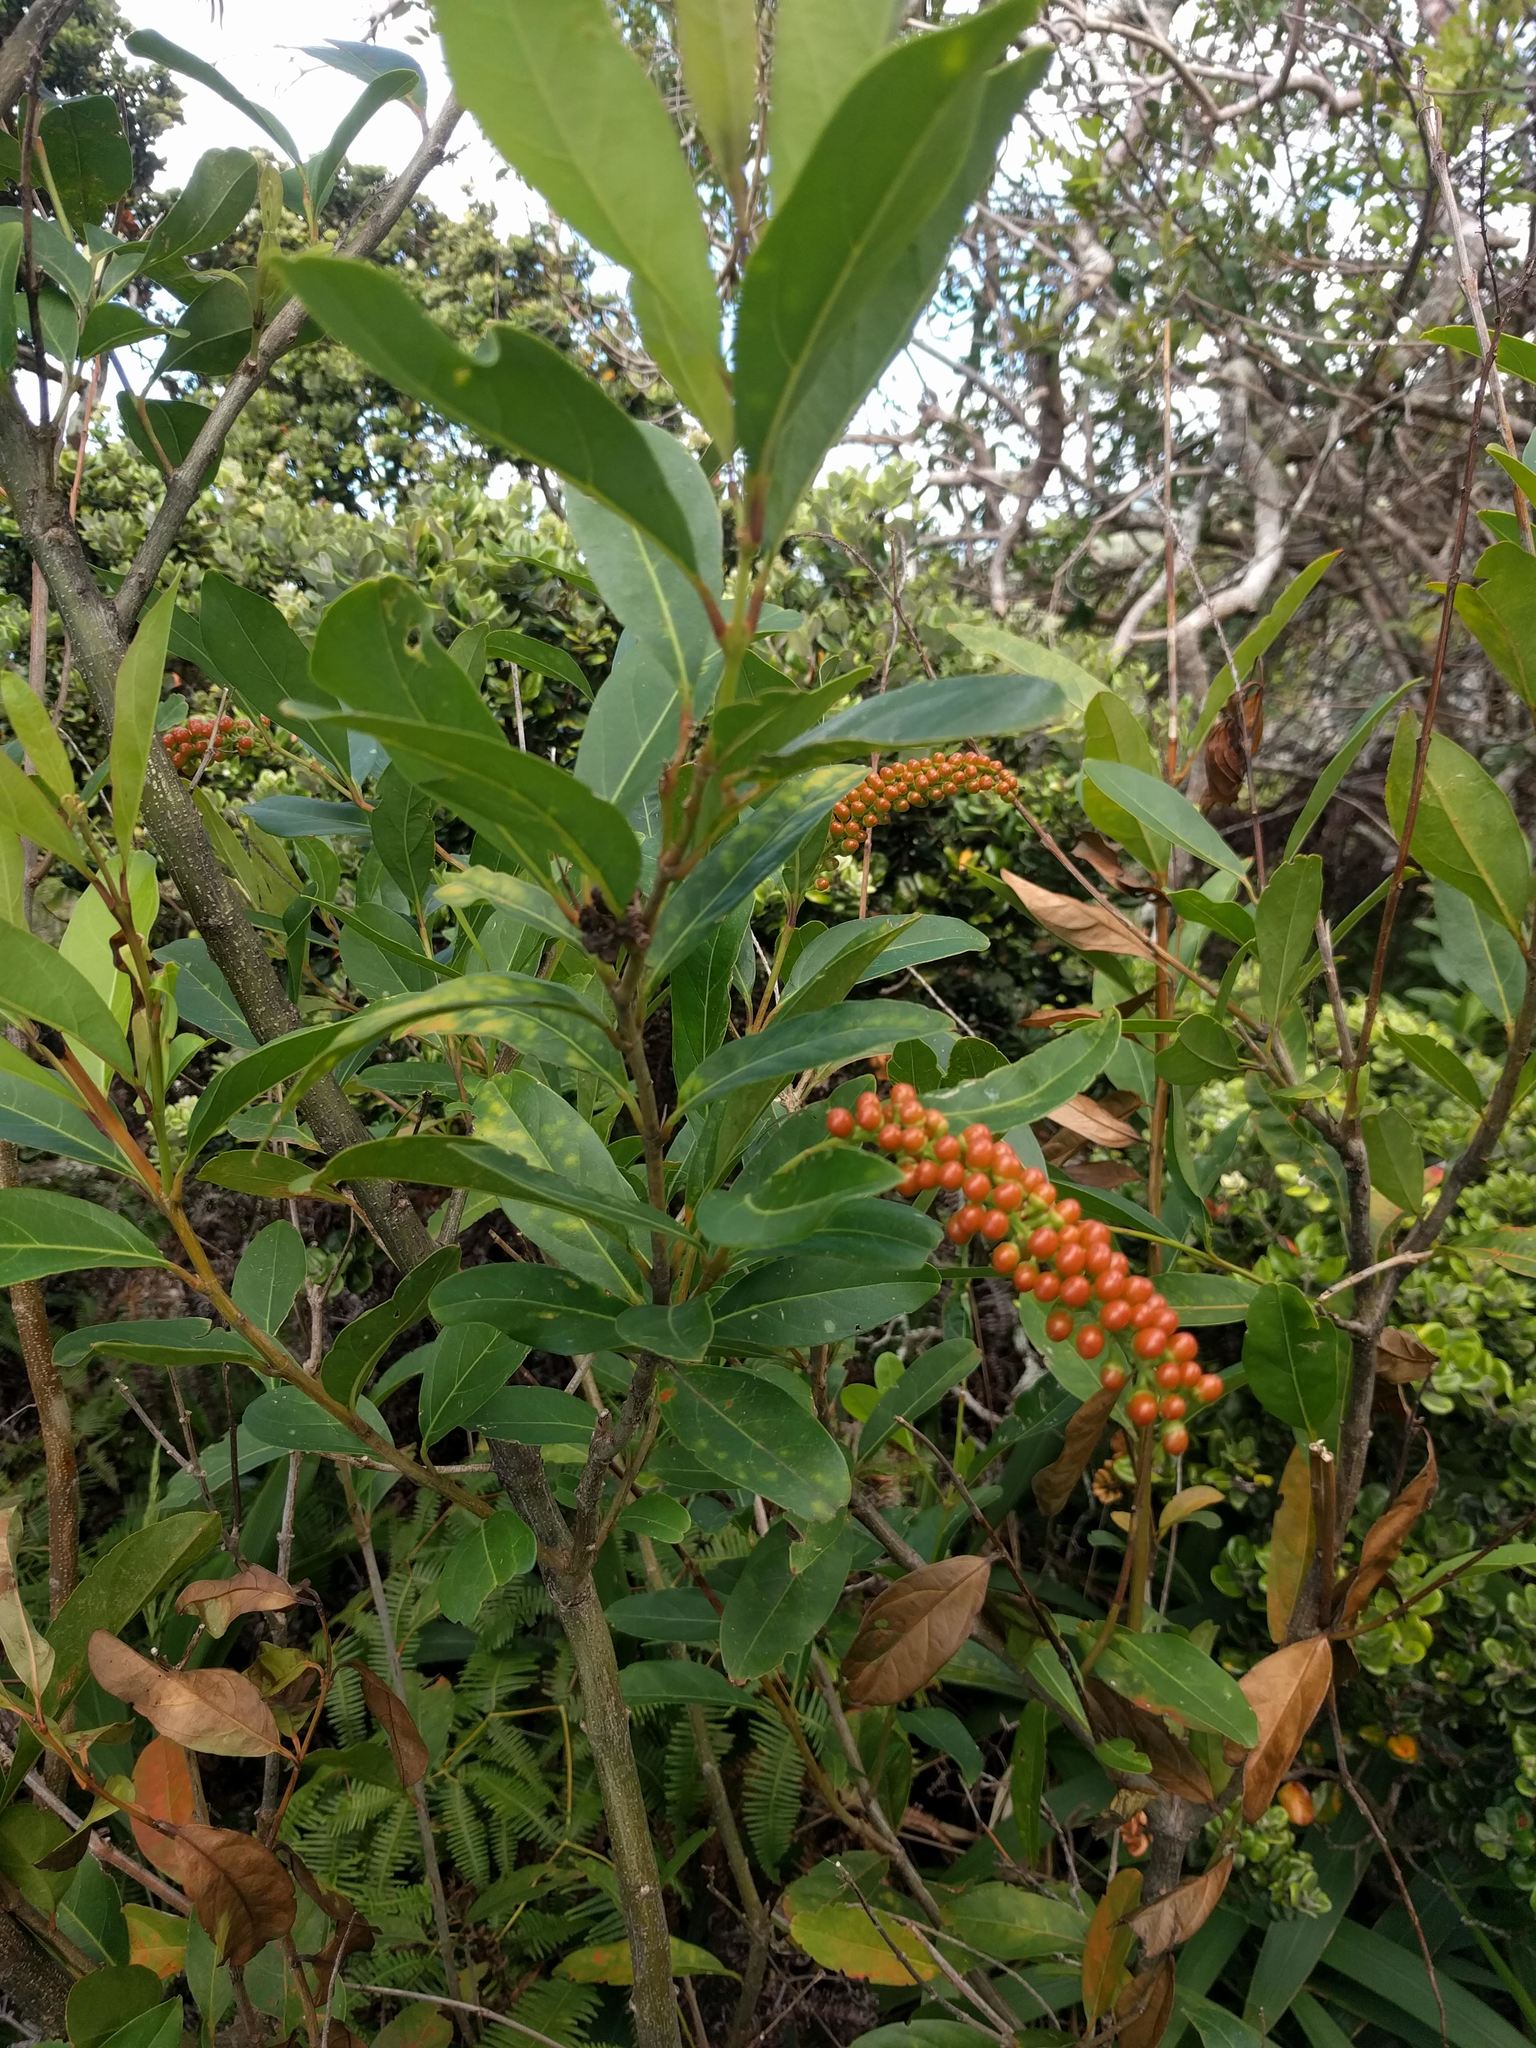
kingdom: Plantae
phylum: Tracheophyta
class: Magnoliopsida
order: Lamiales
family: Verbenaceae
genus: Citharexylum
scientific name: Citharexylum caudatum
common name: Fiddlewood
